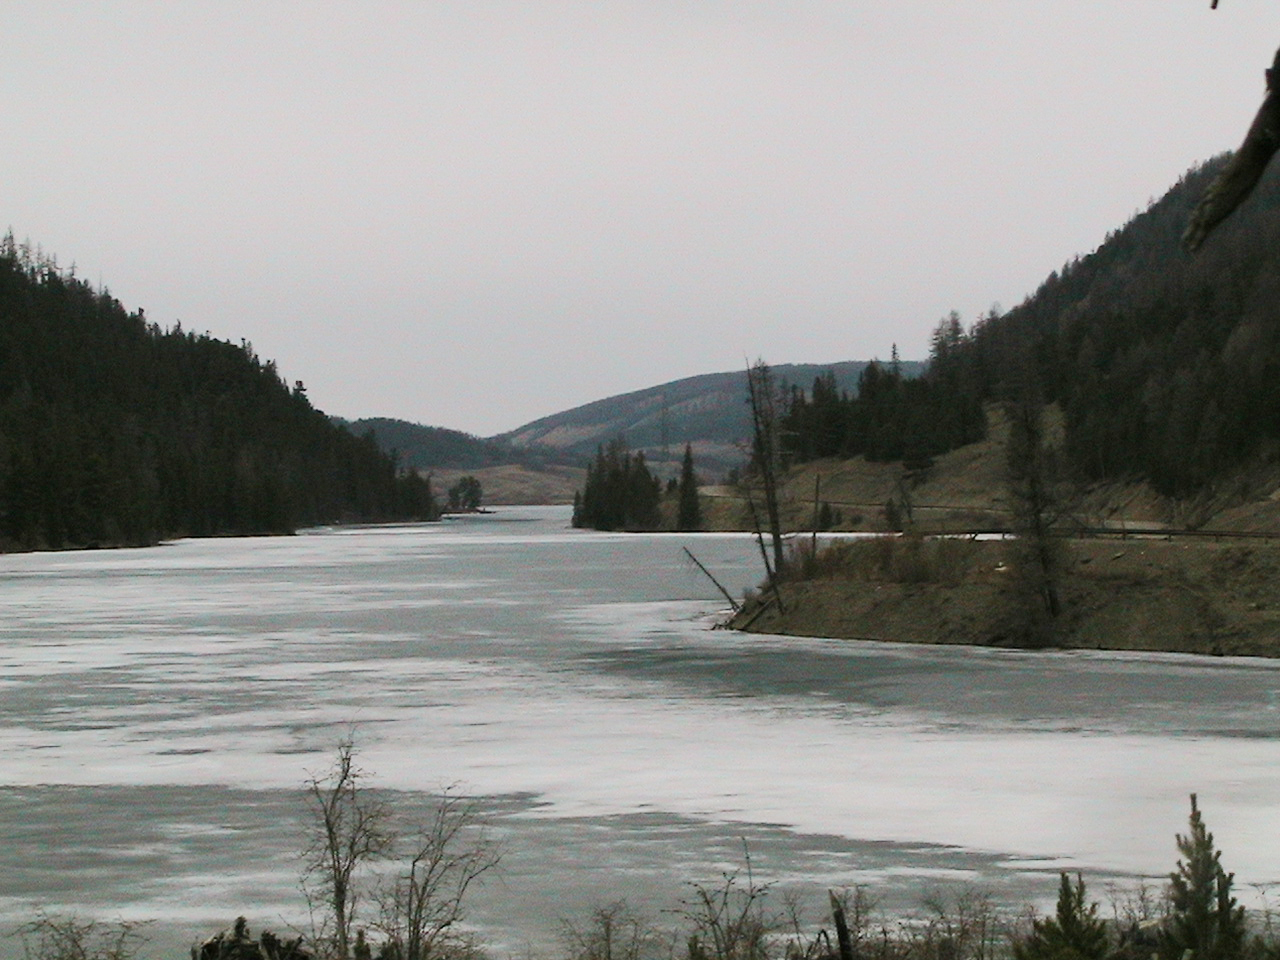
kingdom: Plantae
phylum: Tracheophyta
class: Pinopsida
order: Pinales
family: Pinaceae
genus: Picea
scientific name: Picea obovata
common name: Siberian spruce
